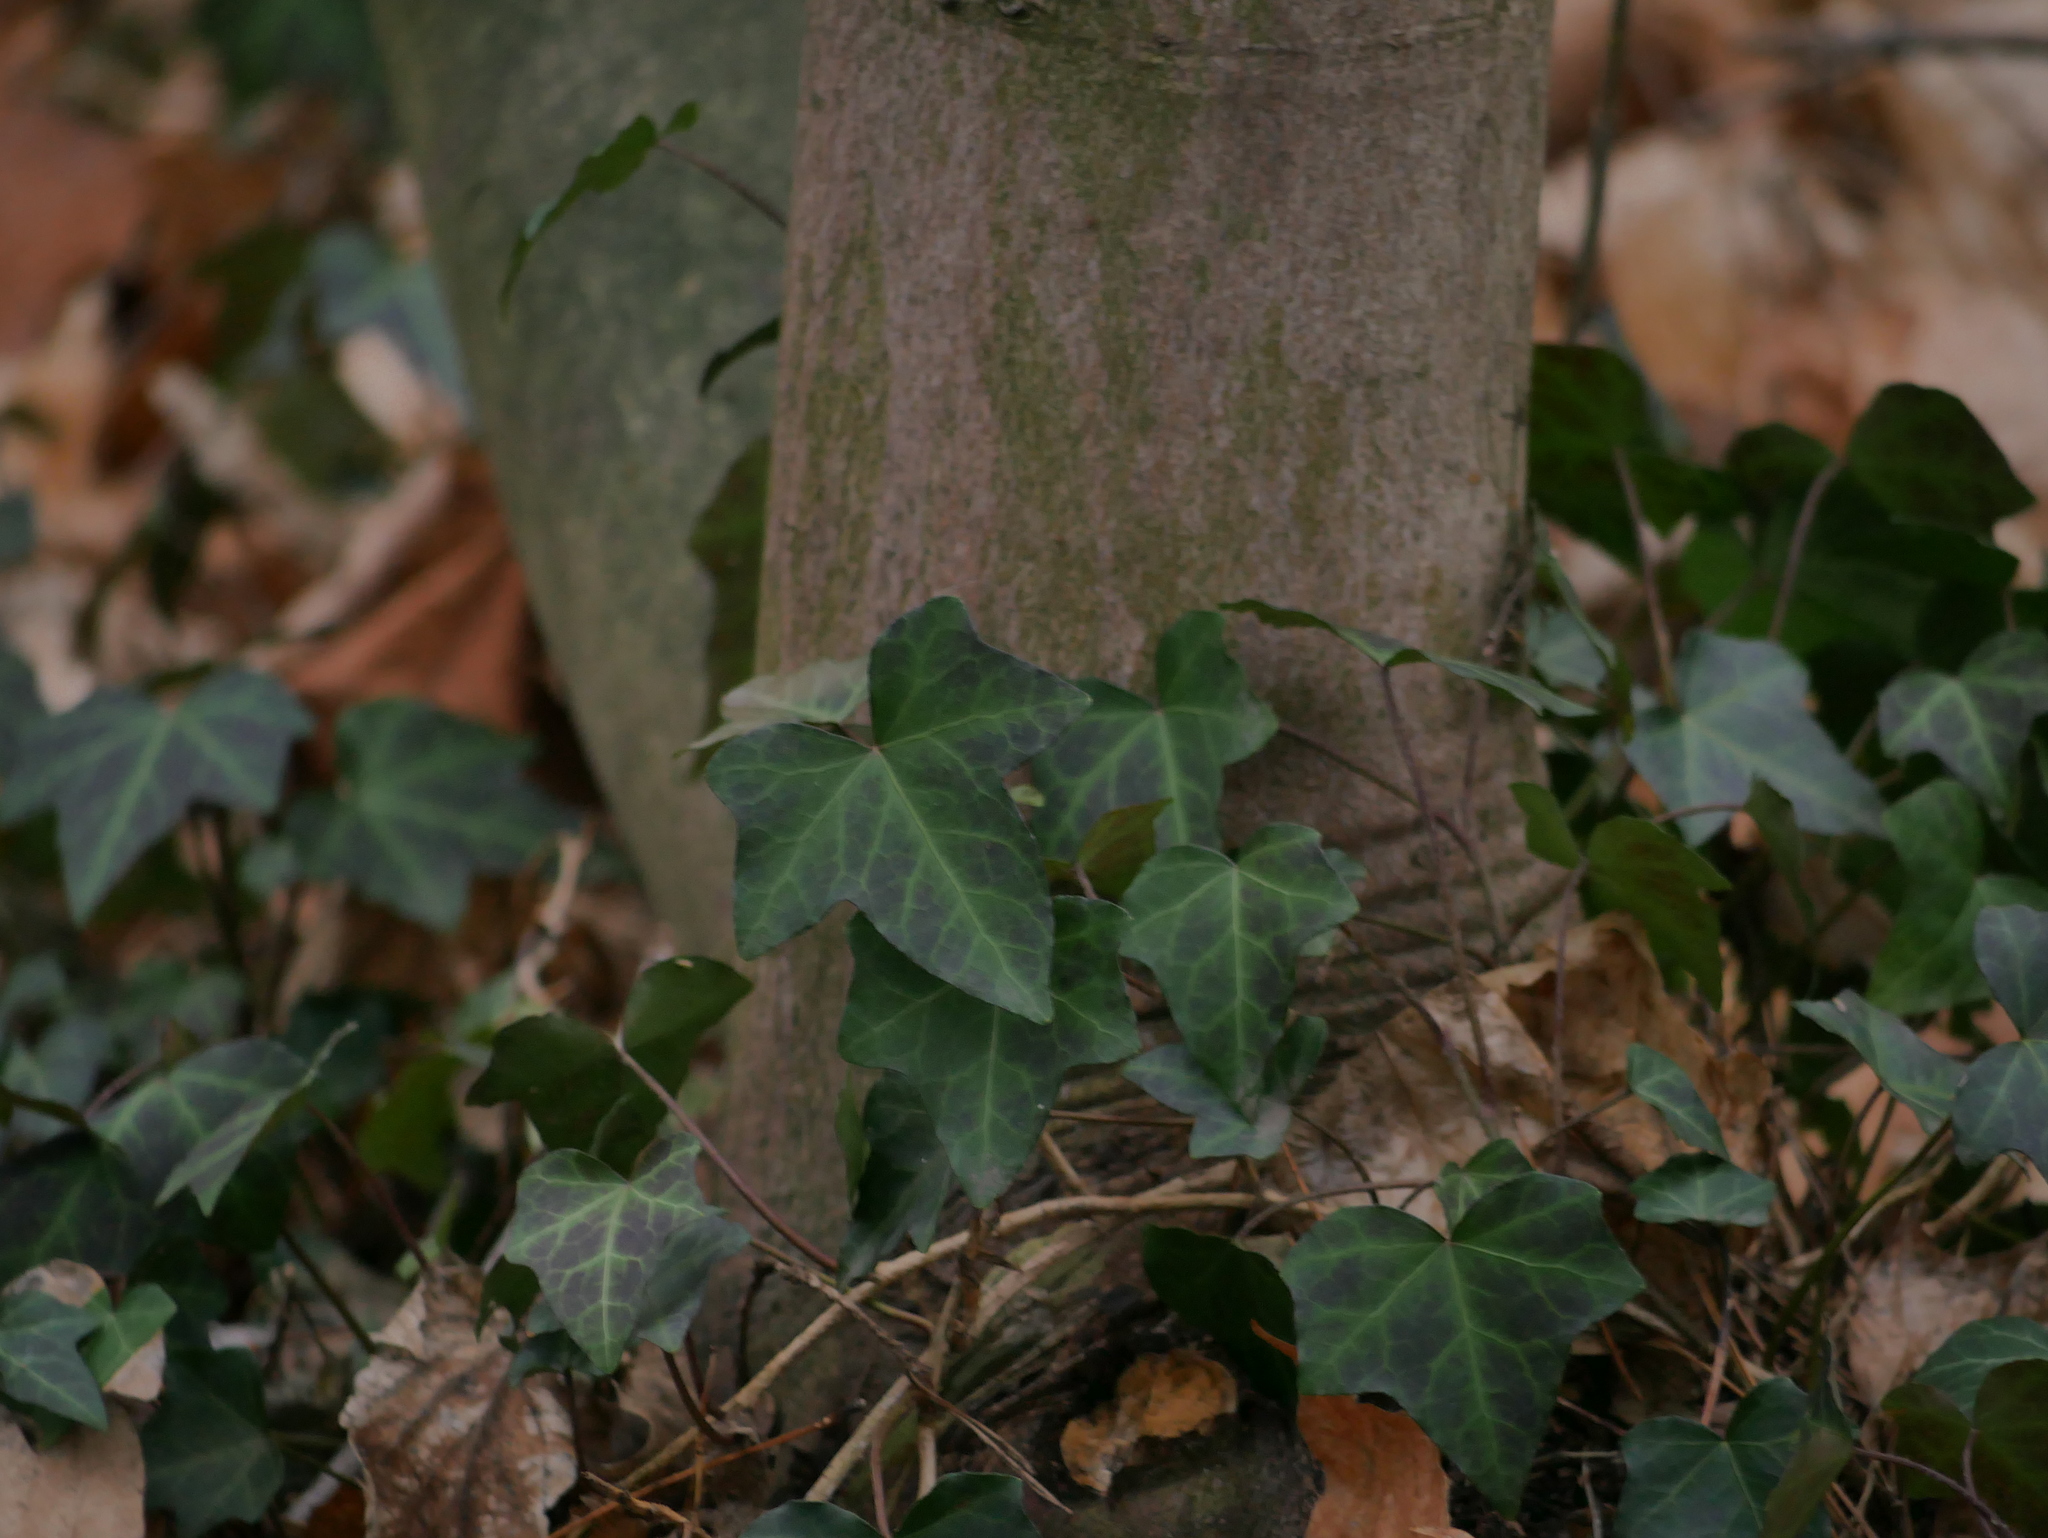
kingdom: Plantae
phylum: Tracheophyta
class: Magnoliopsida
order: Apiales
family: Araliaceae
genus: Hedera
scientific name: Hedera helix
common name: Ivy
